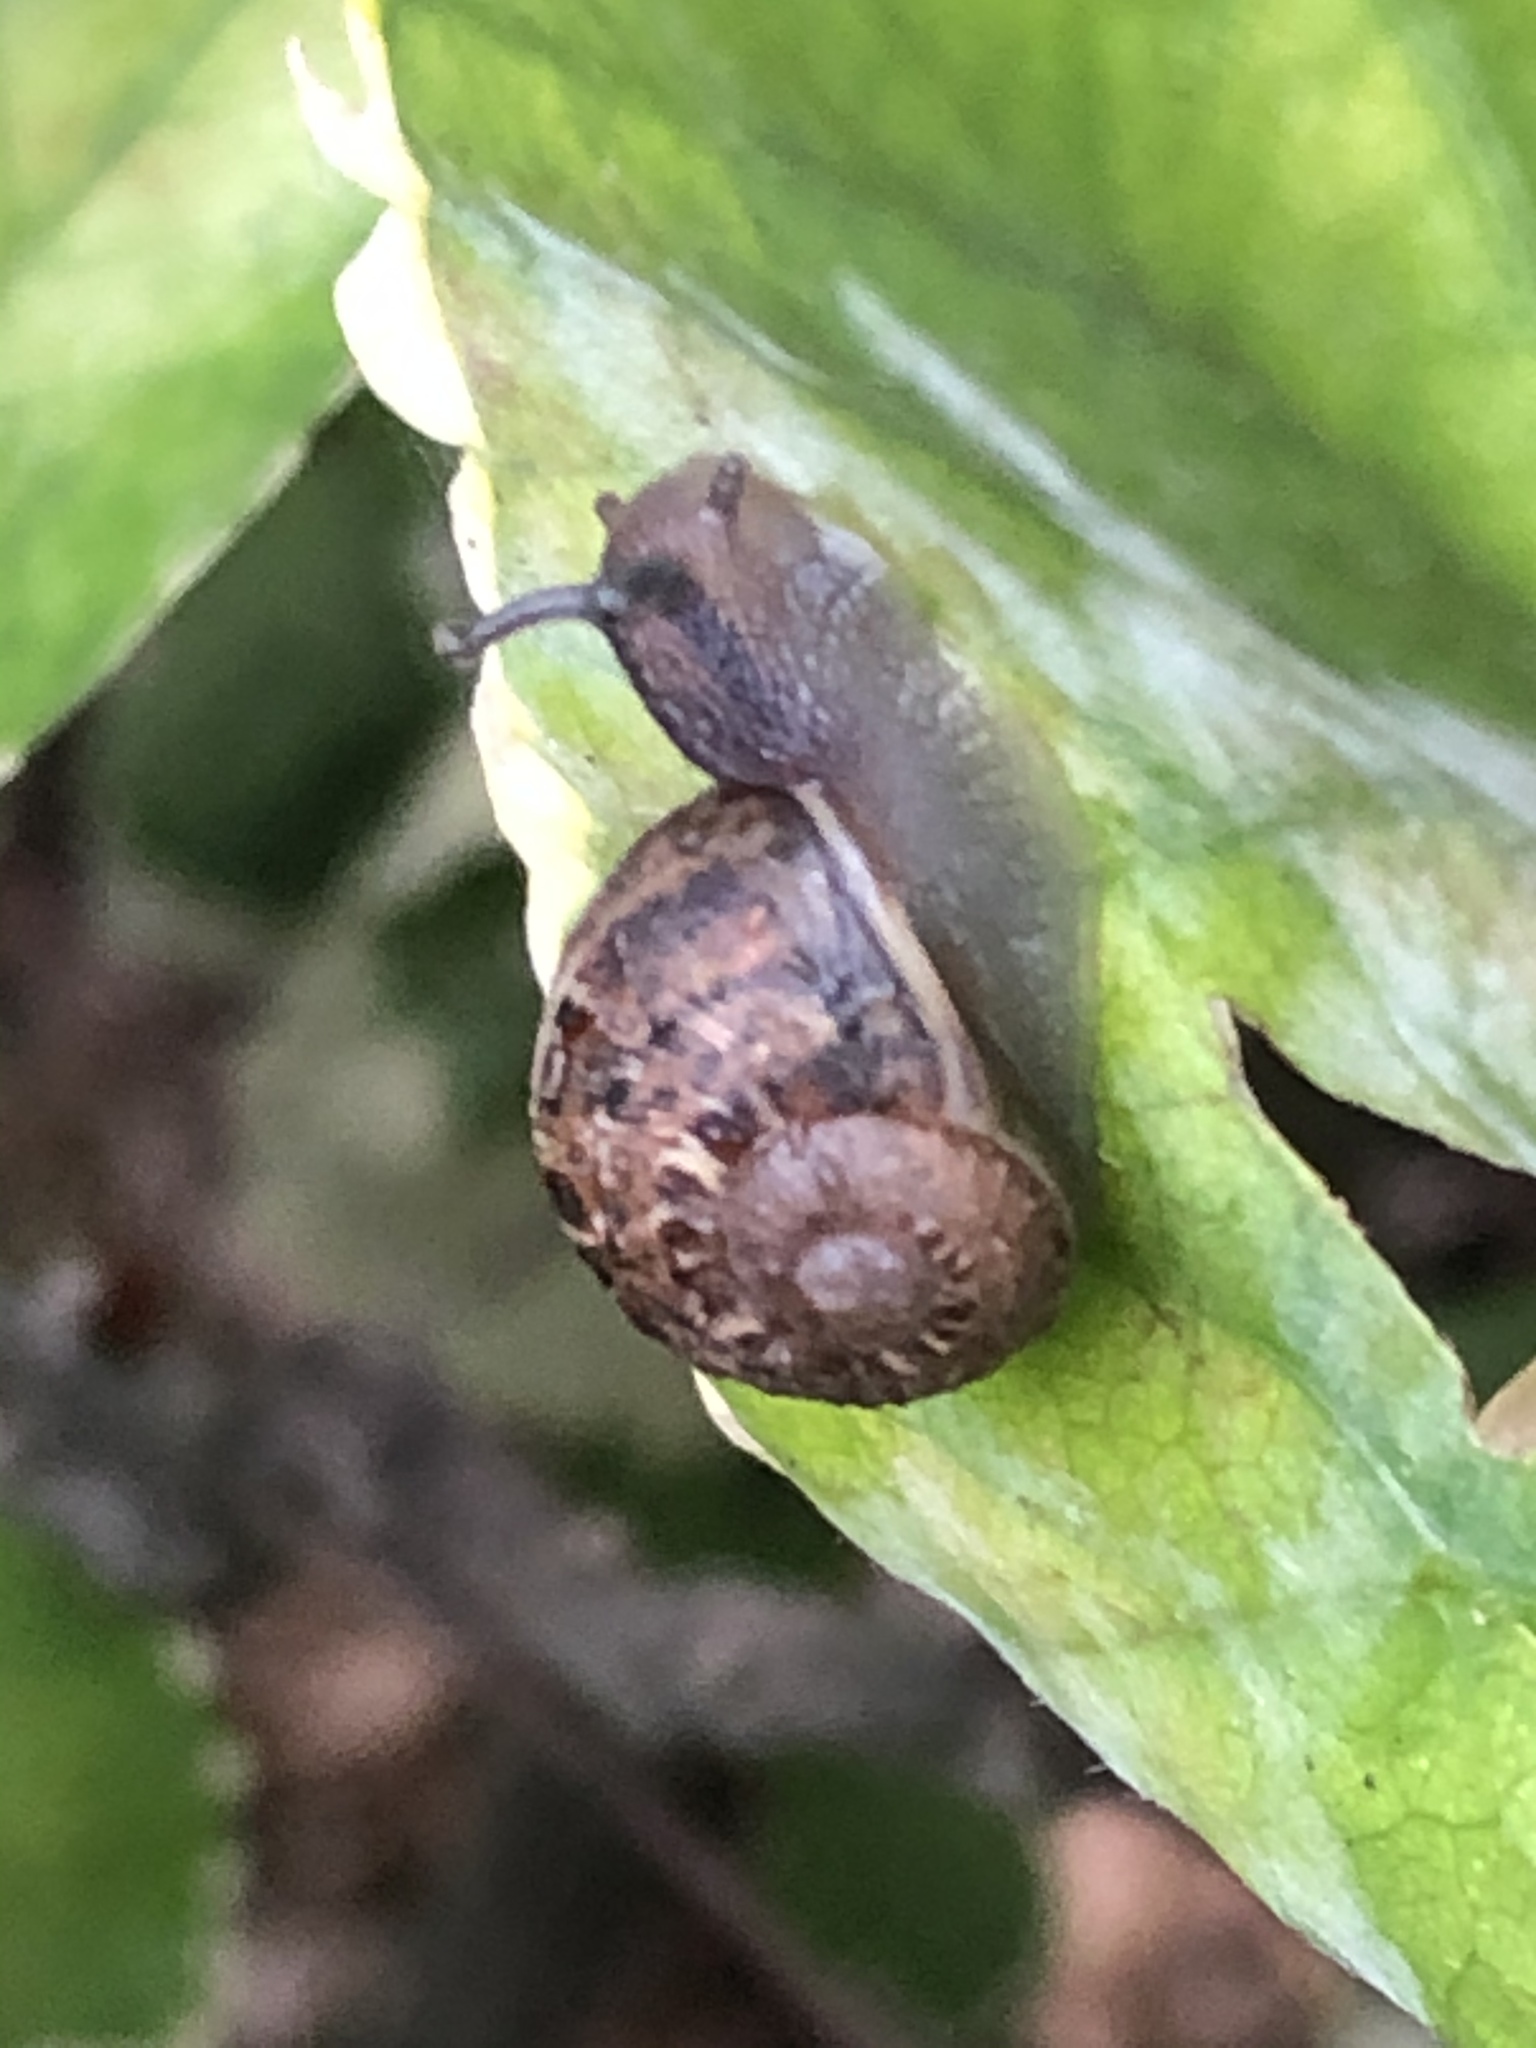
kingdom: Animalia
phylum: Mollusca
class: Gastropoda
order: Stylommatophora
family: Helicidae
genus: Cornu
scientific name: Cornu aspersum
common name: Brown garden snail
